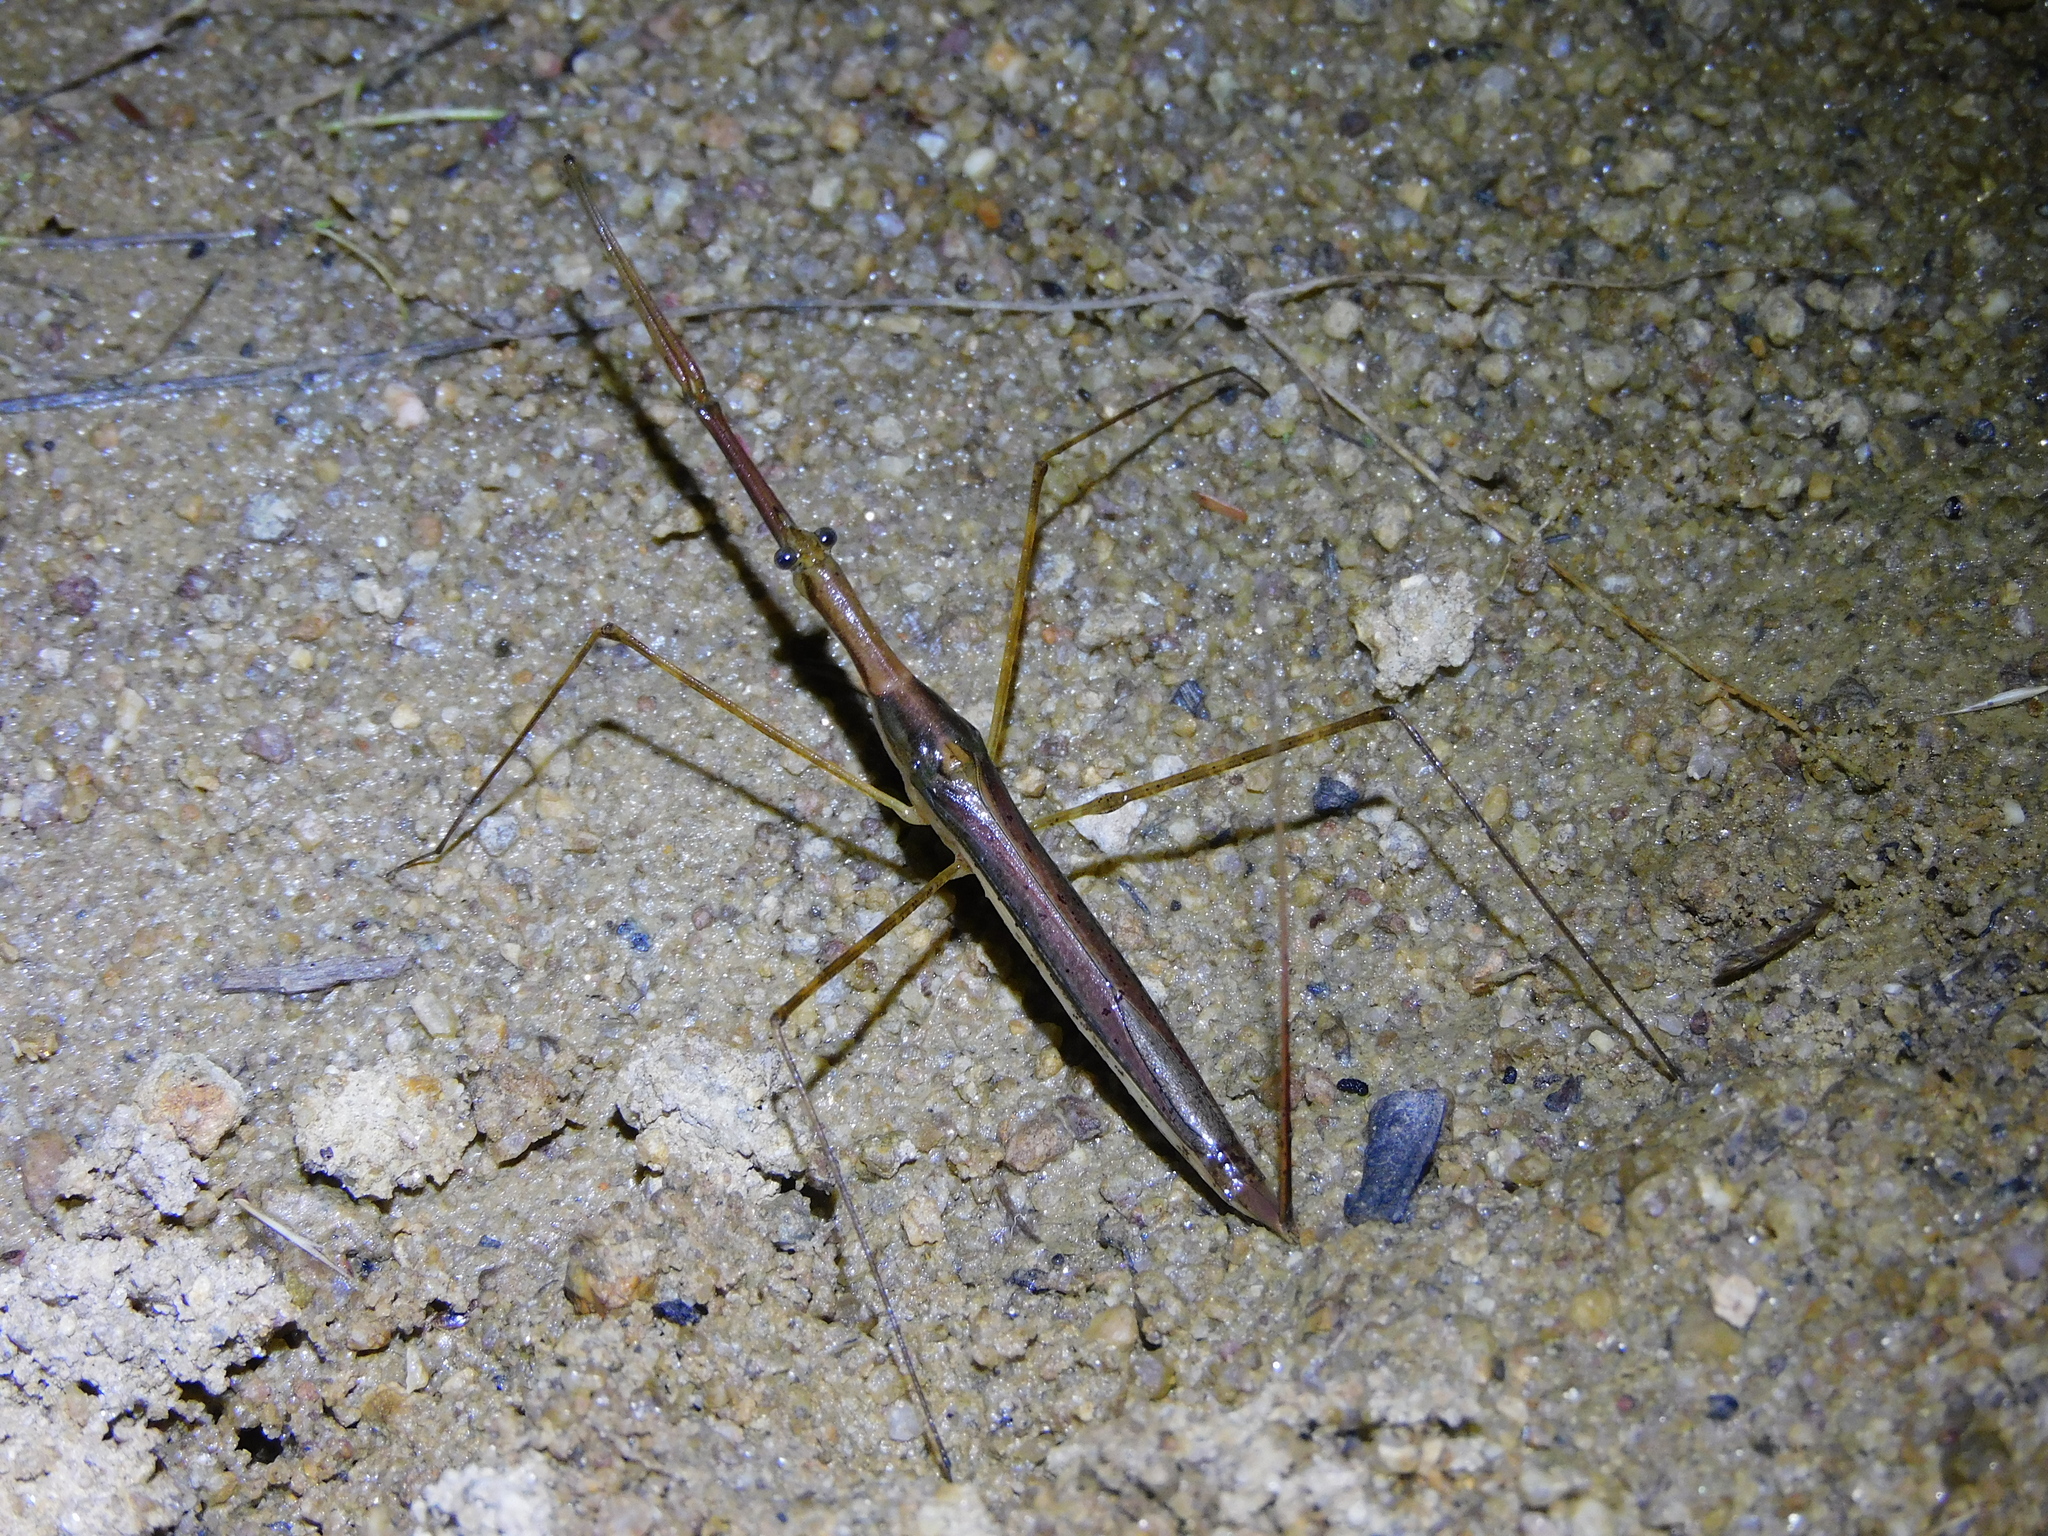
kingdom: Animalia
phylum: Arthropoda
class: Insecta
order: Hemiptera
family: Nepidae
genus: Ranatra
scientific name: Ranatra dispar
